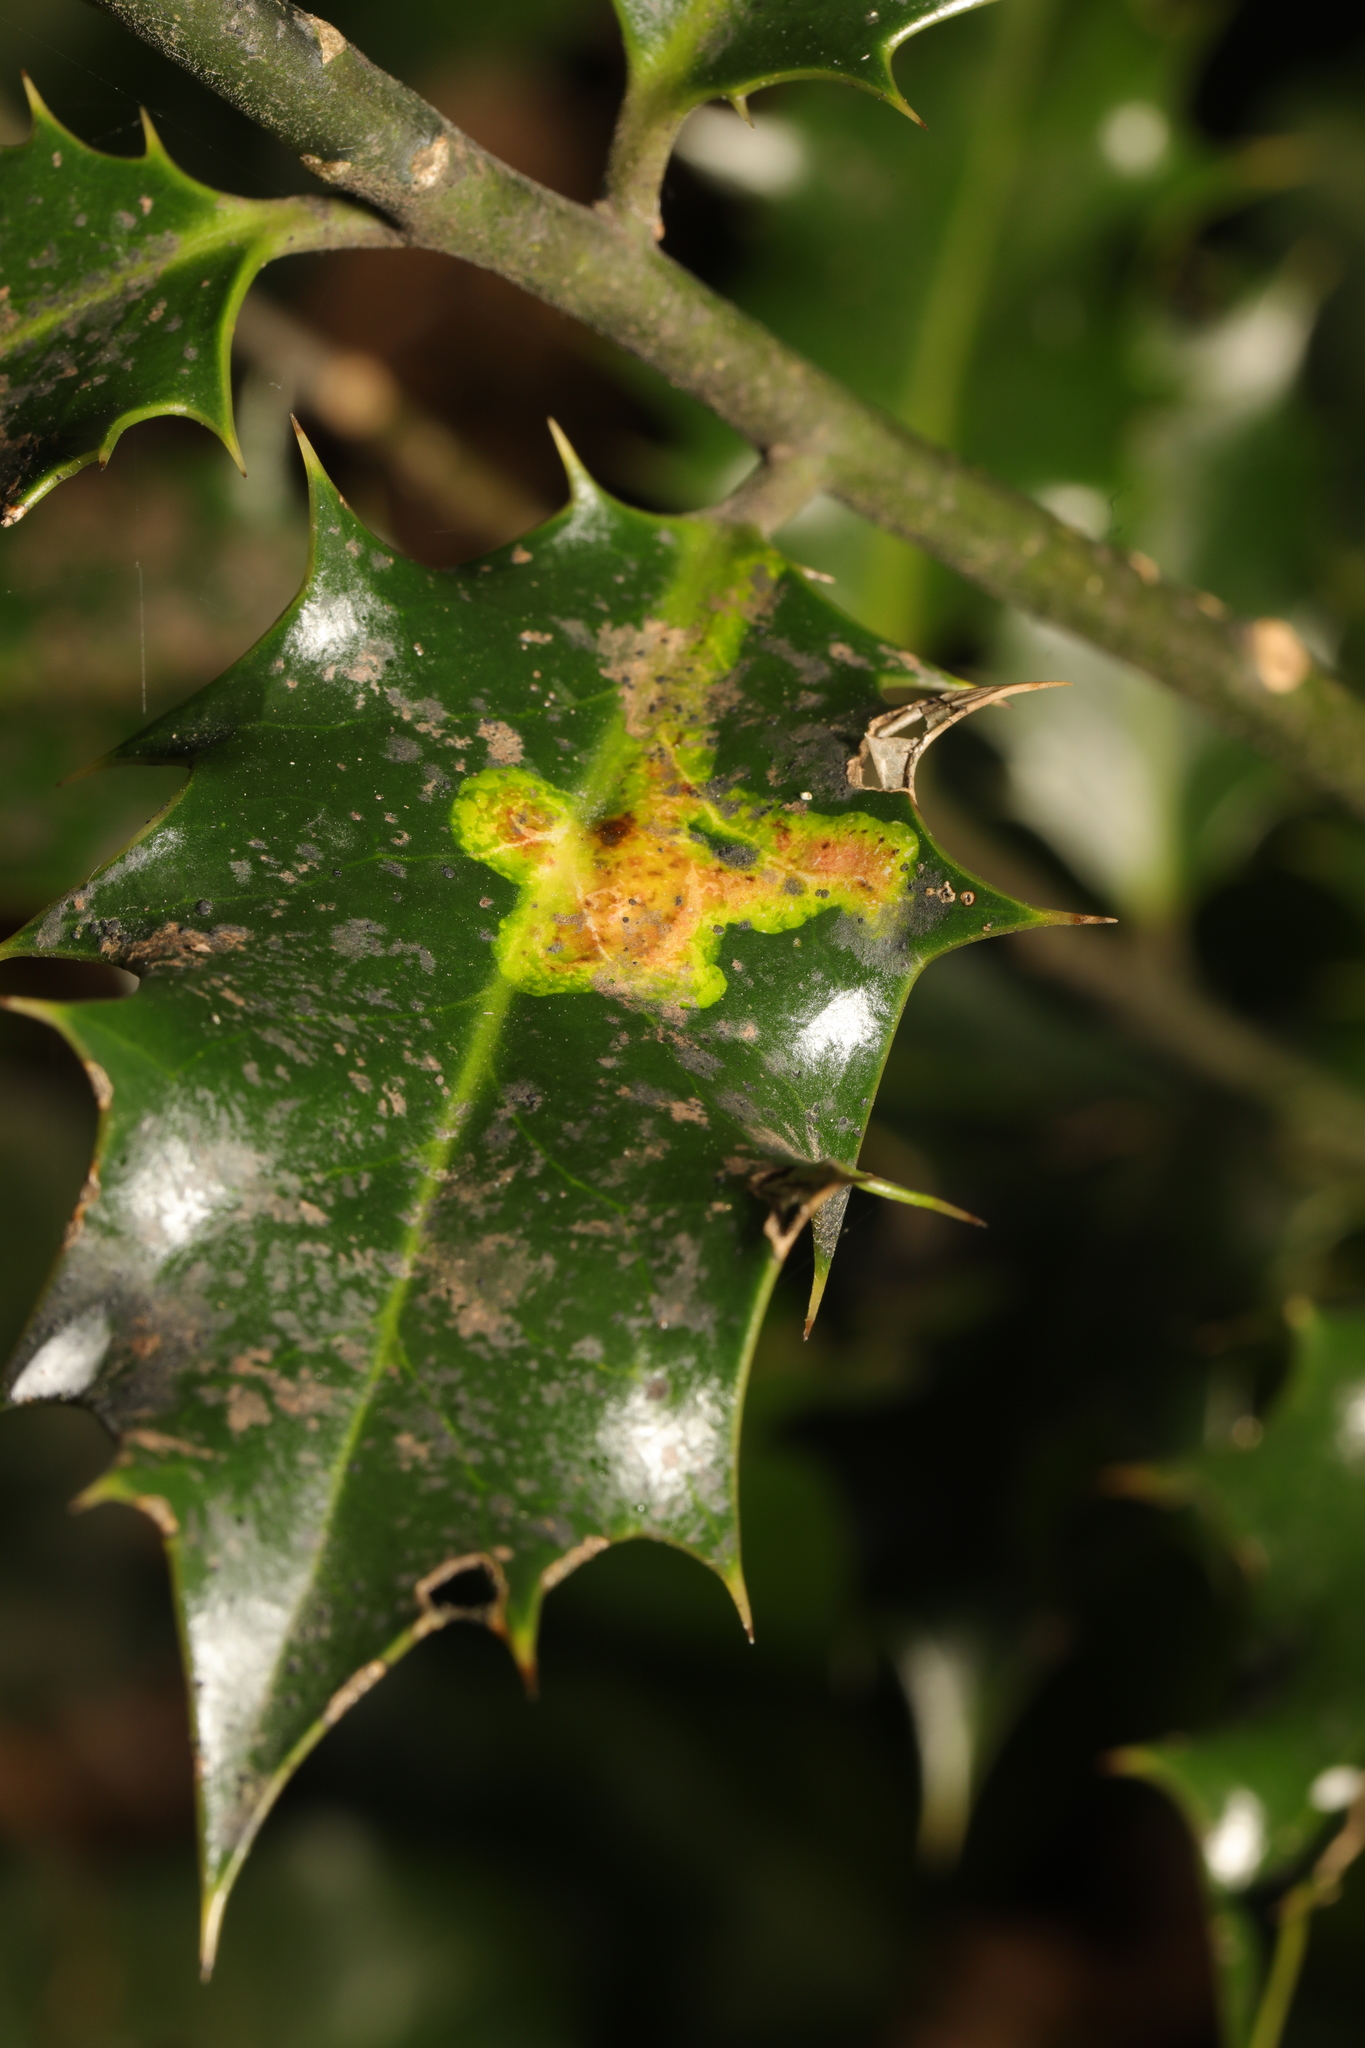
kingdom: Animalia
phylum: Arthropoda
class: Insecta
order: Diptera
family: Agromyzidae
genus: Phytomyza
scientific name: Phytomyza ilicis
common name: Holly leafminer
